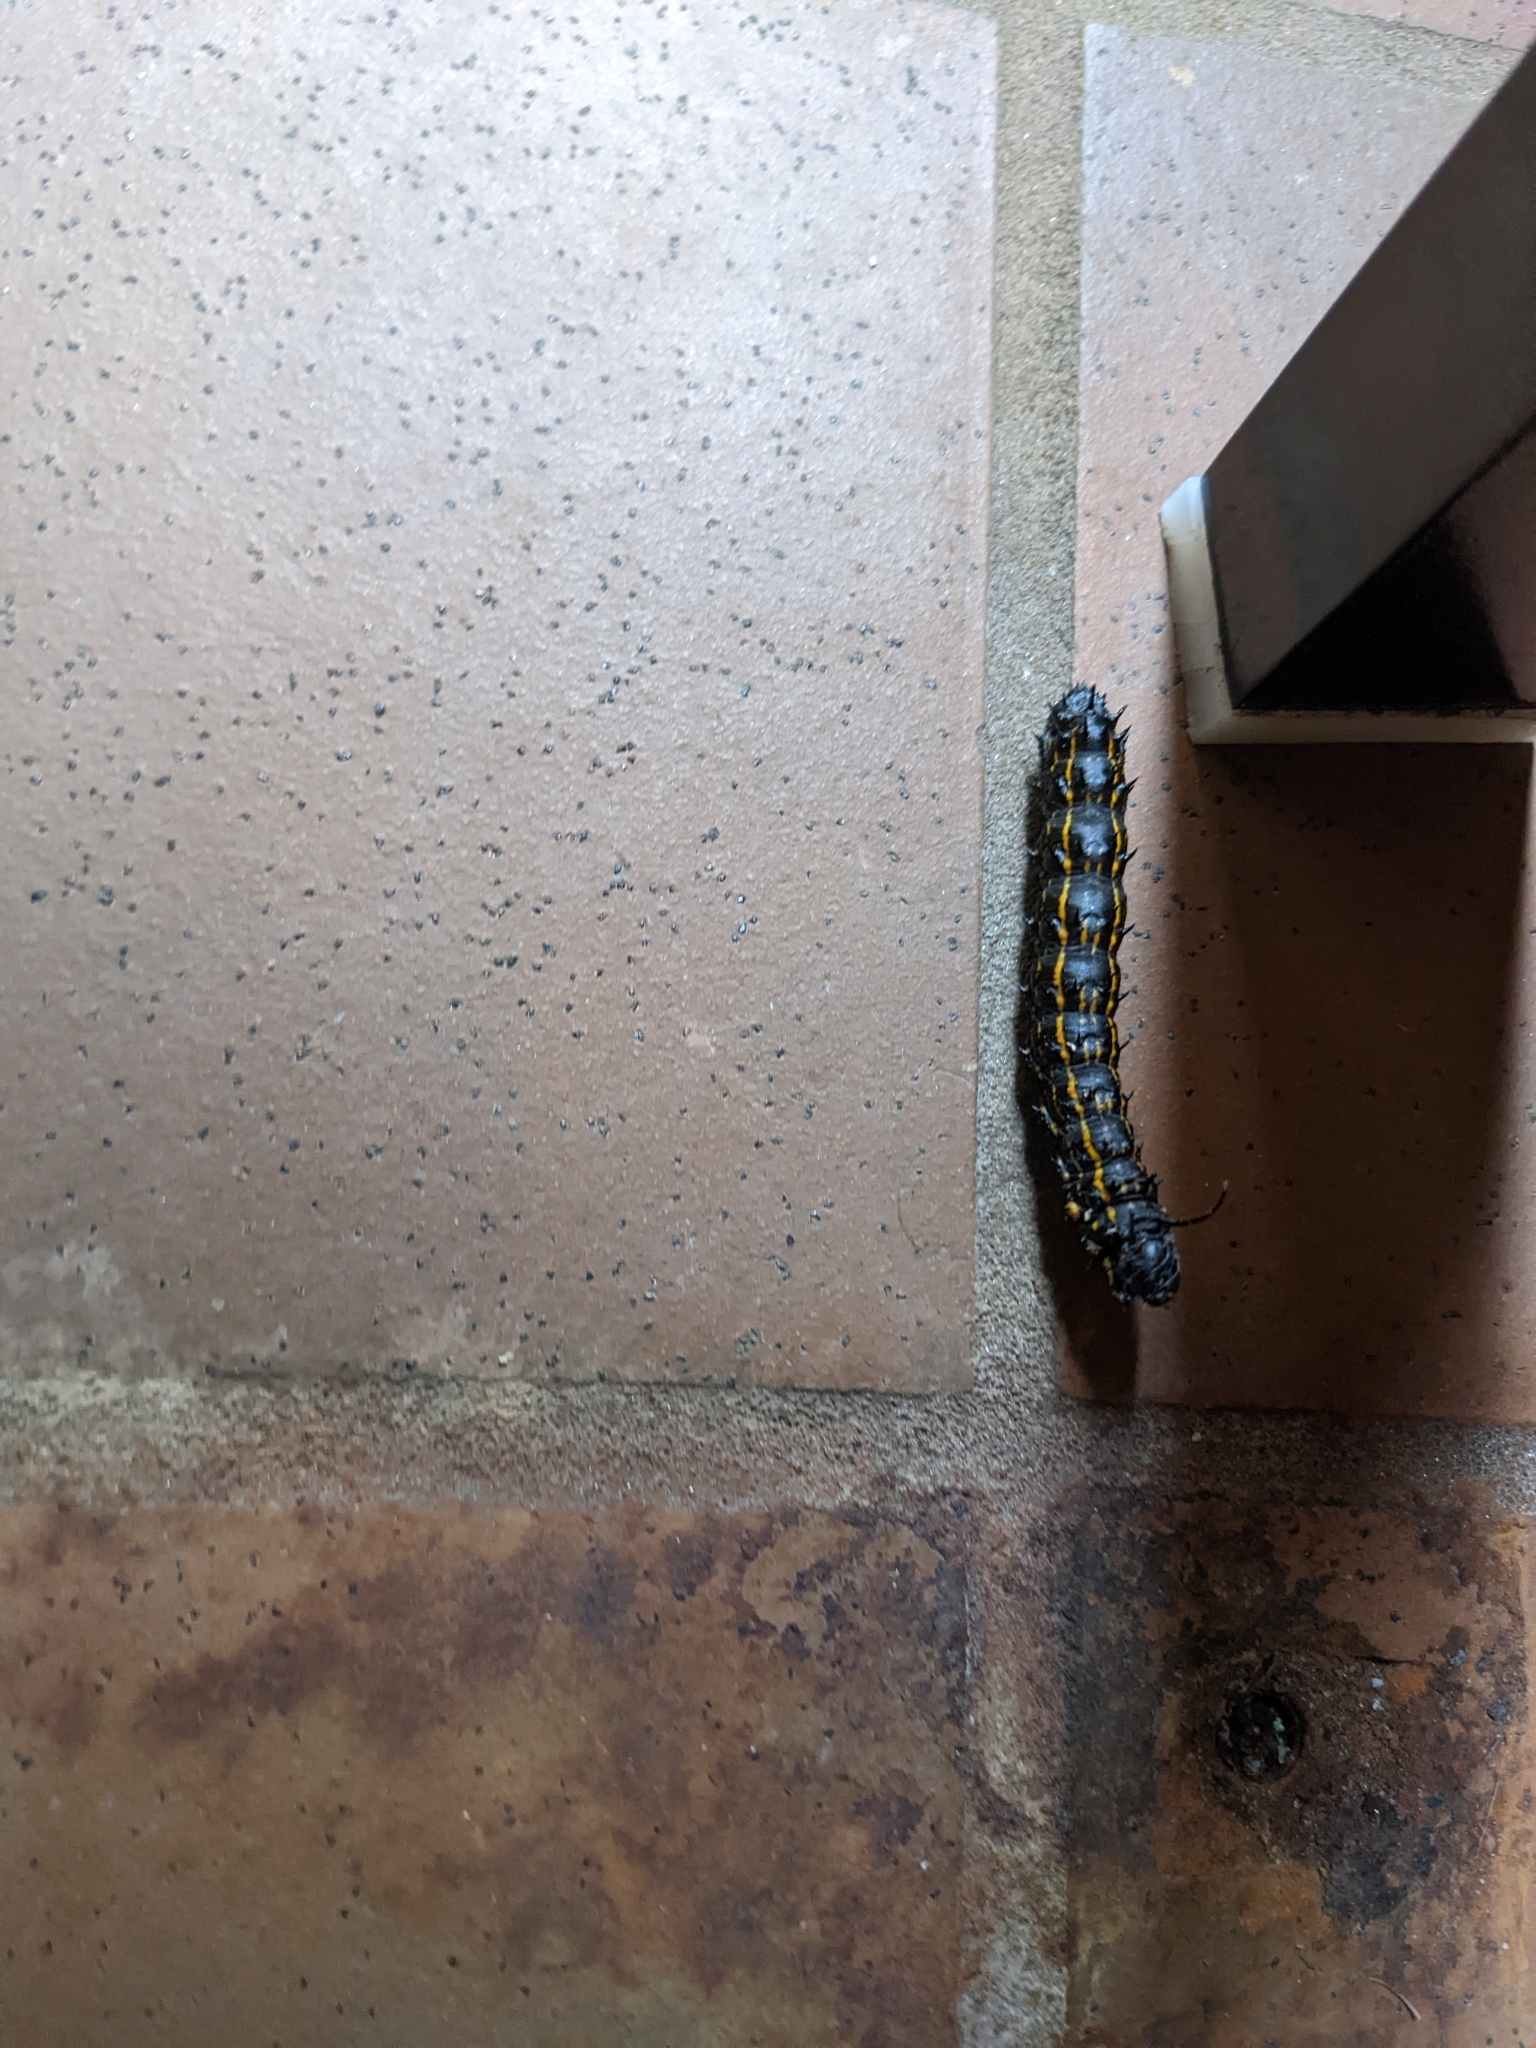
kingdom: Animalia
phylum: Arthropoda
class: Insecta
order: Lepidoptera
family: Saturniidae
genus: Anisota
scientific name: Anisota peigleri
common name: Peigler's oakworm moth
